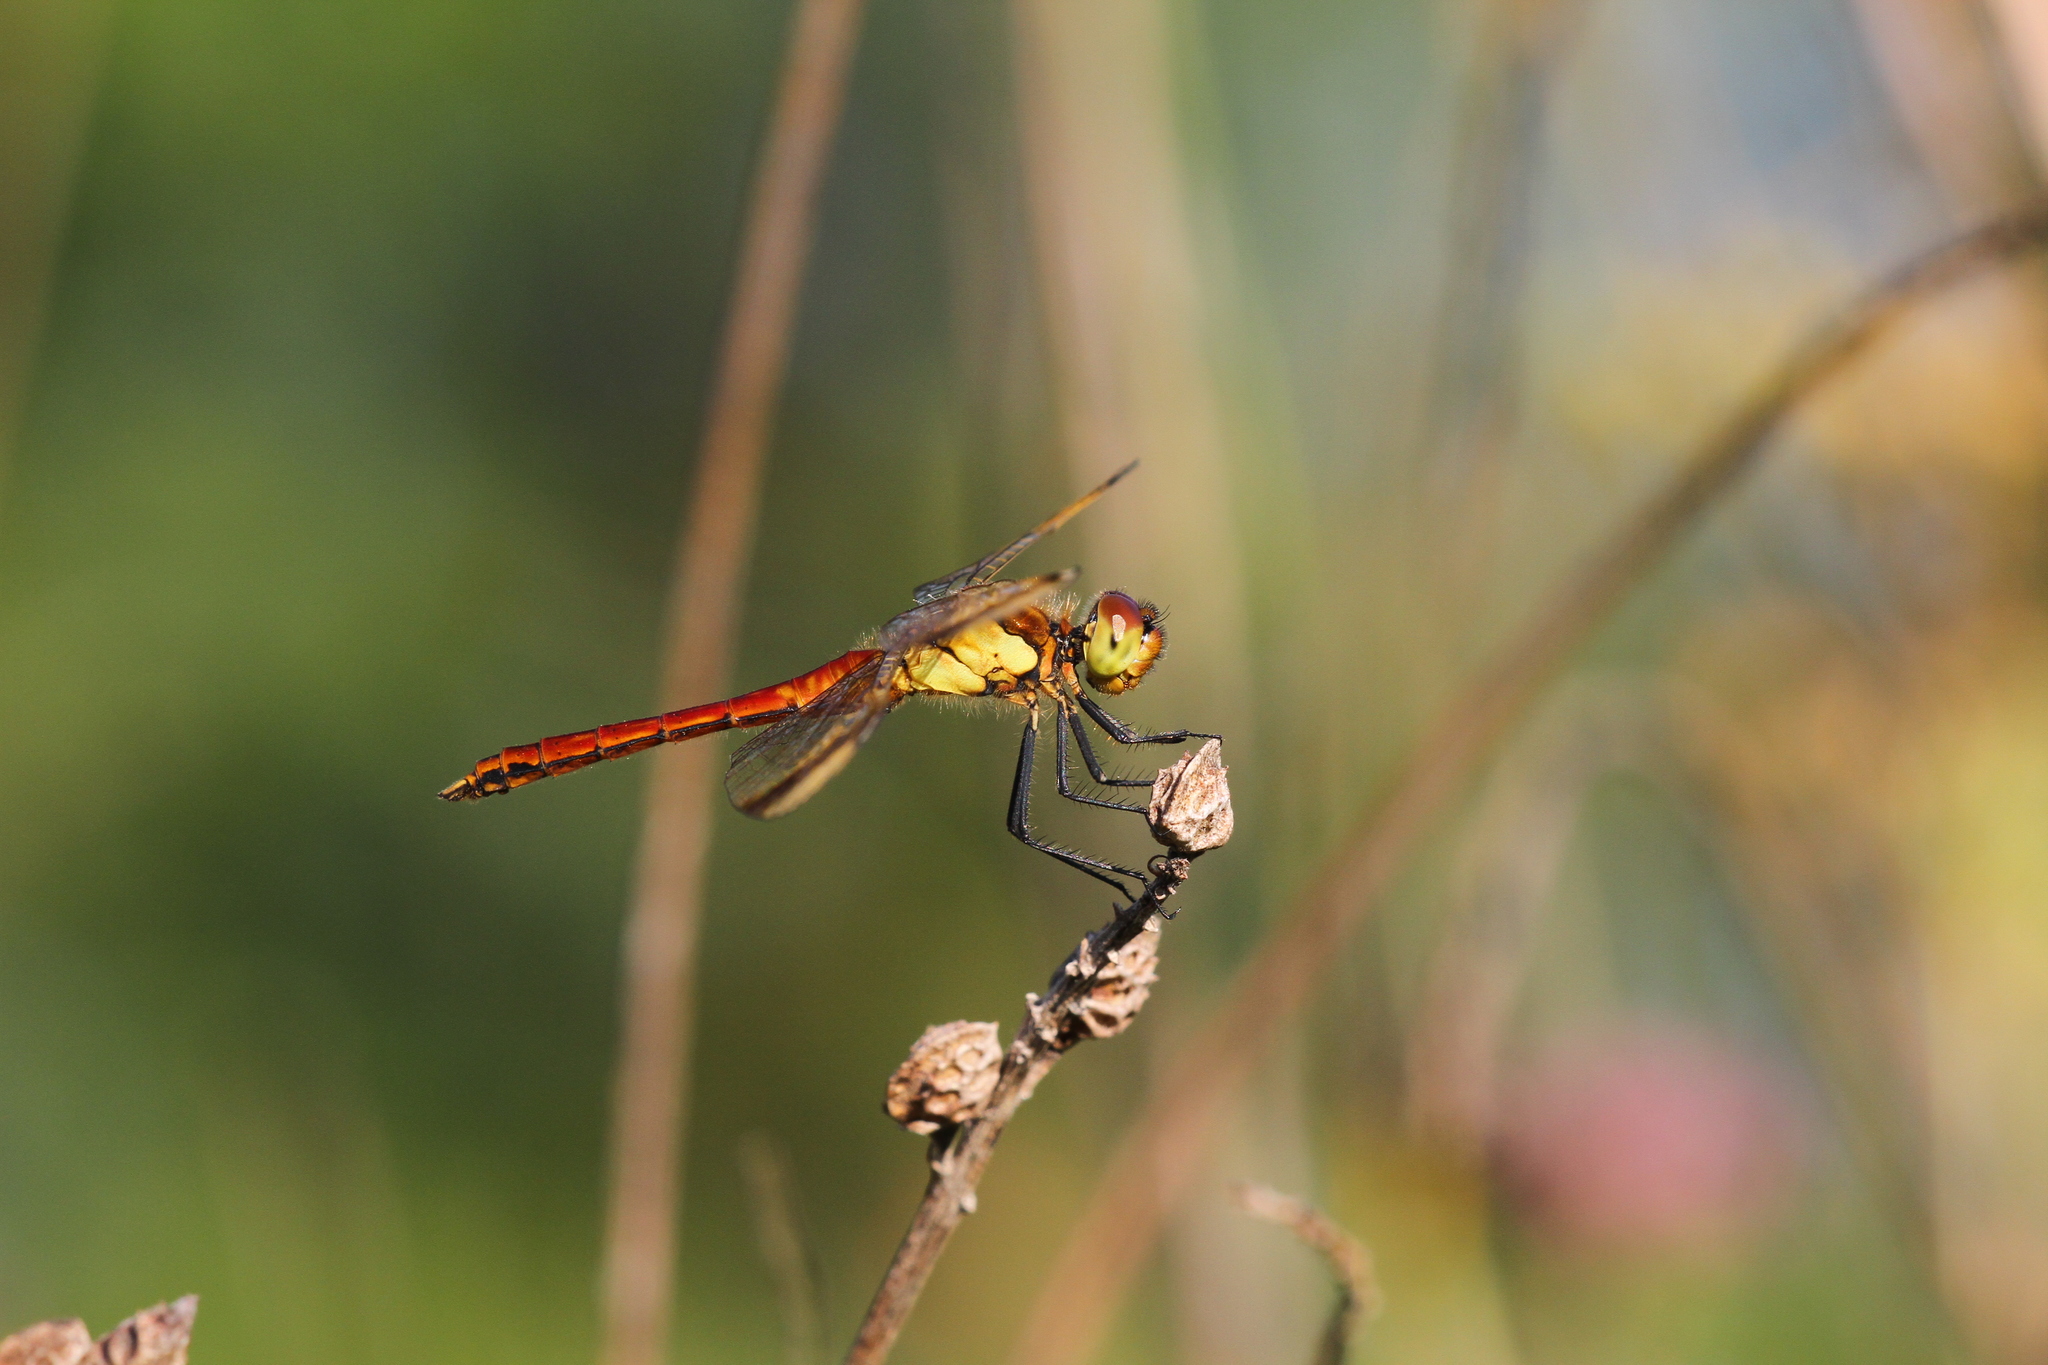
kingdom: Animalia
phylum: Arthropoda
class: Insecta
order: Odonata
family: Libellulidae
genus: Sympetrum
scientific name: Sympetrum pedemontanum
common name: Banded darter
